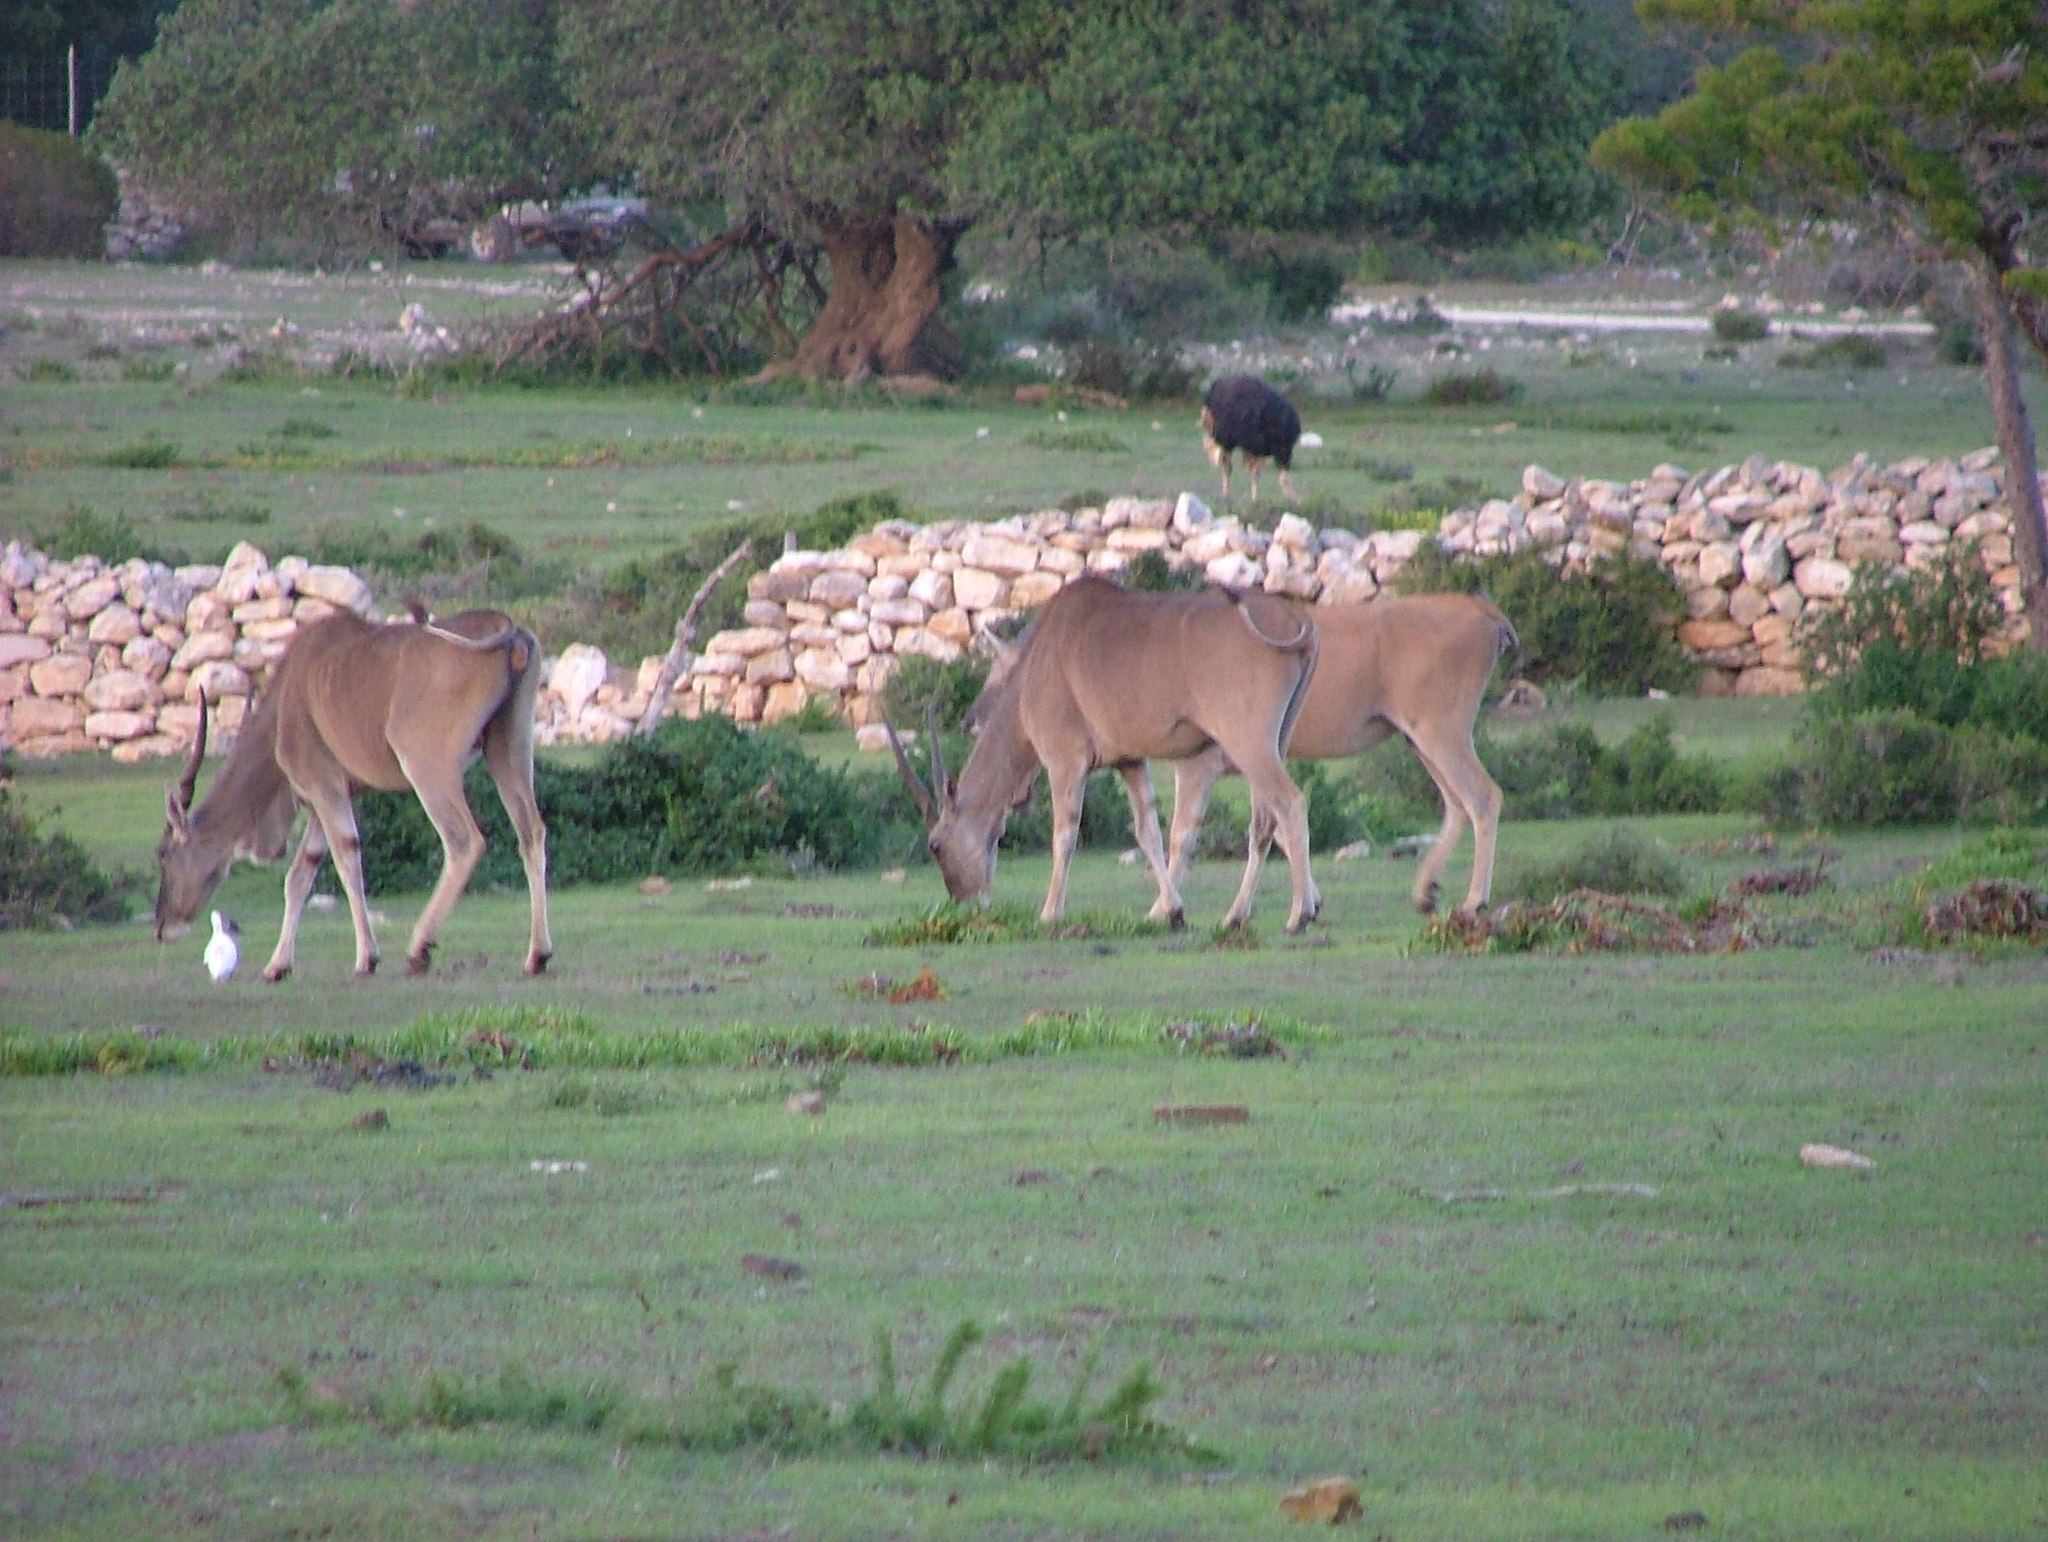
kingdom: Animalia
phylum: Chordata
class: Mammalia
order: Artiodactyla
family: Bovidae
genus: Taurotragus
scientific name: Taurotragus oryx
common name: Common eland
